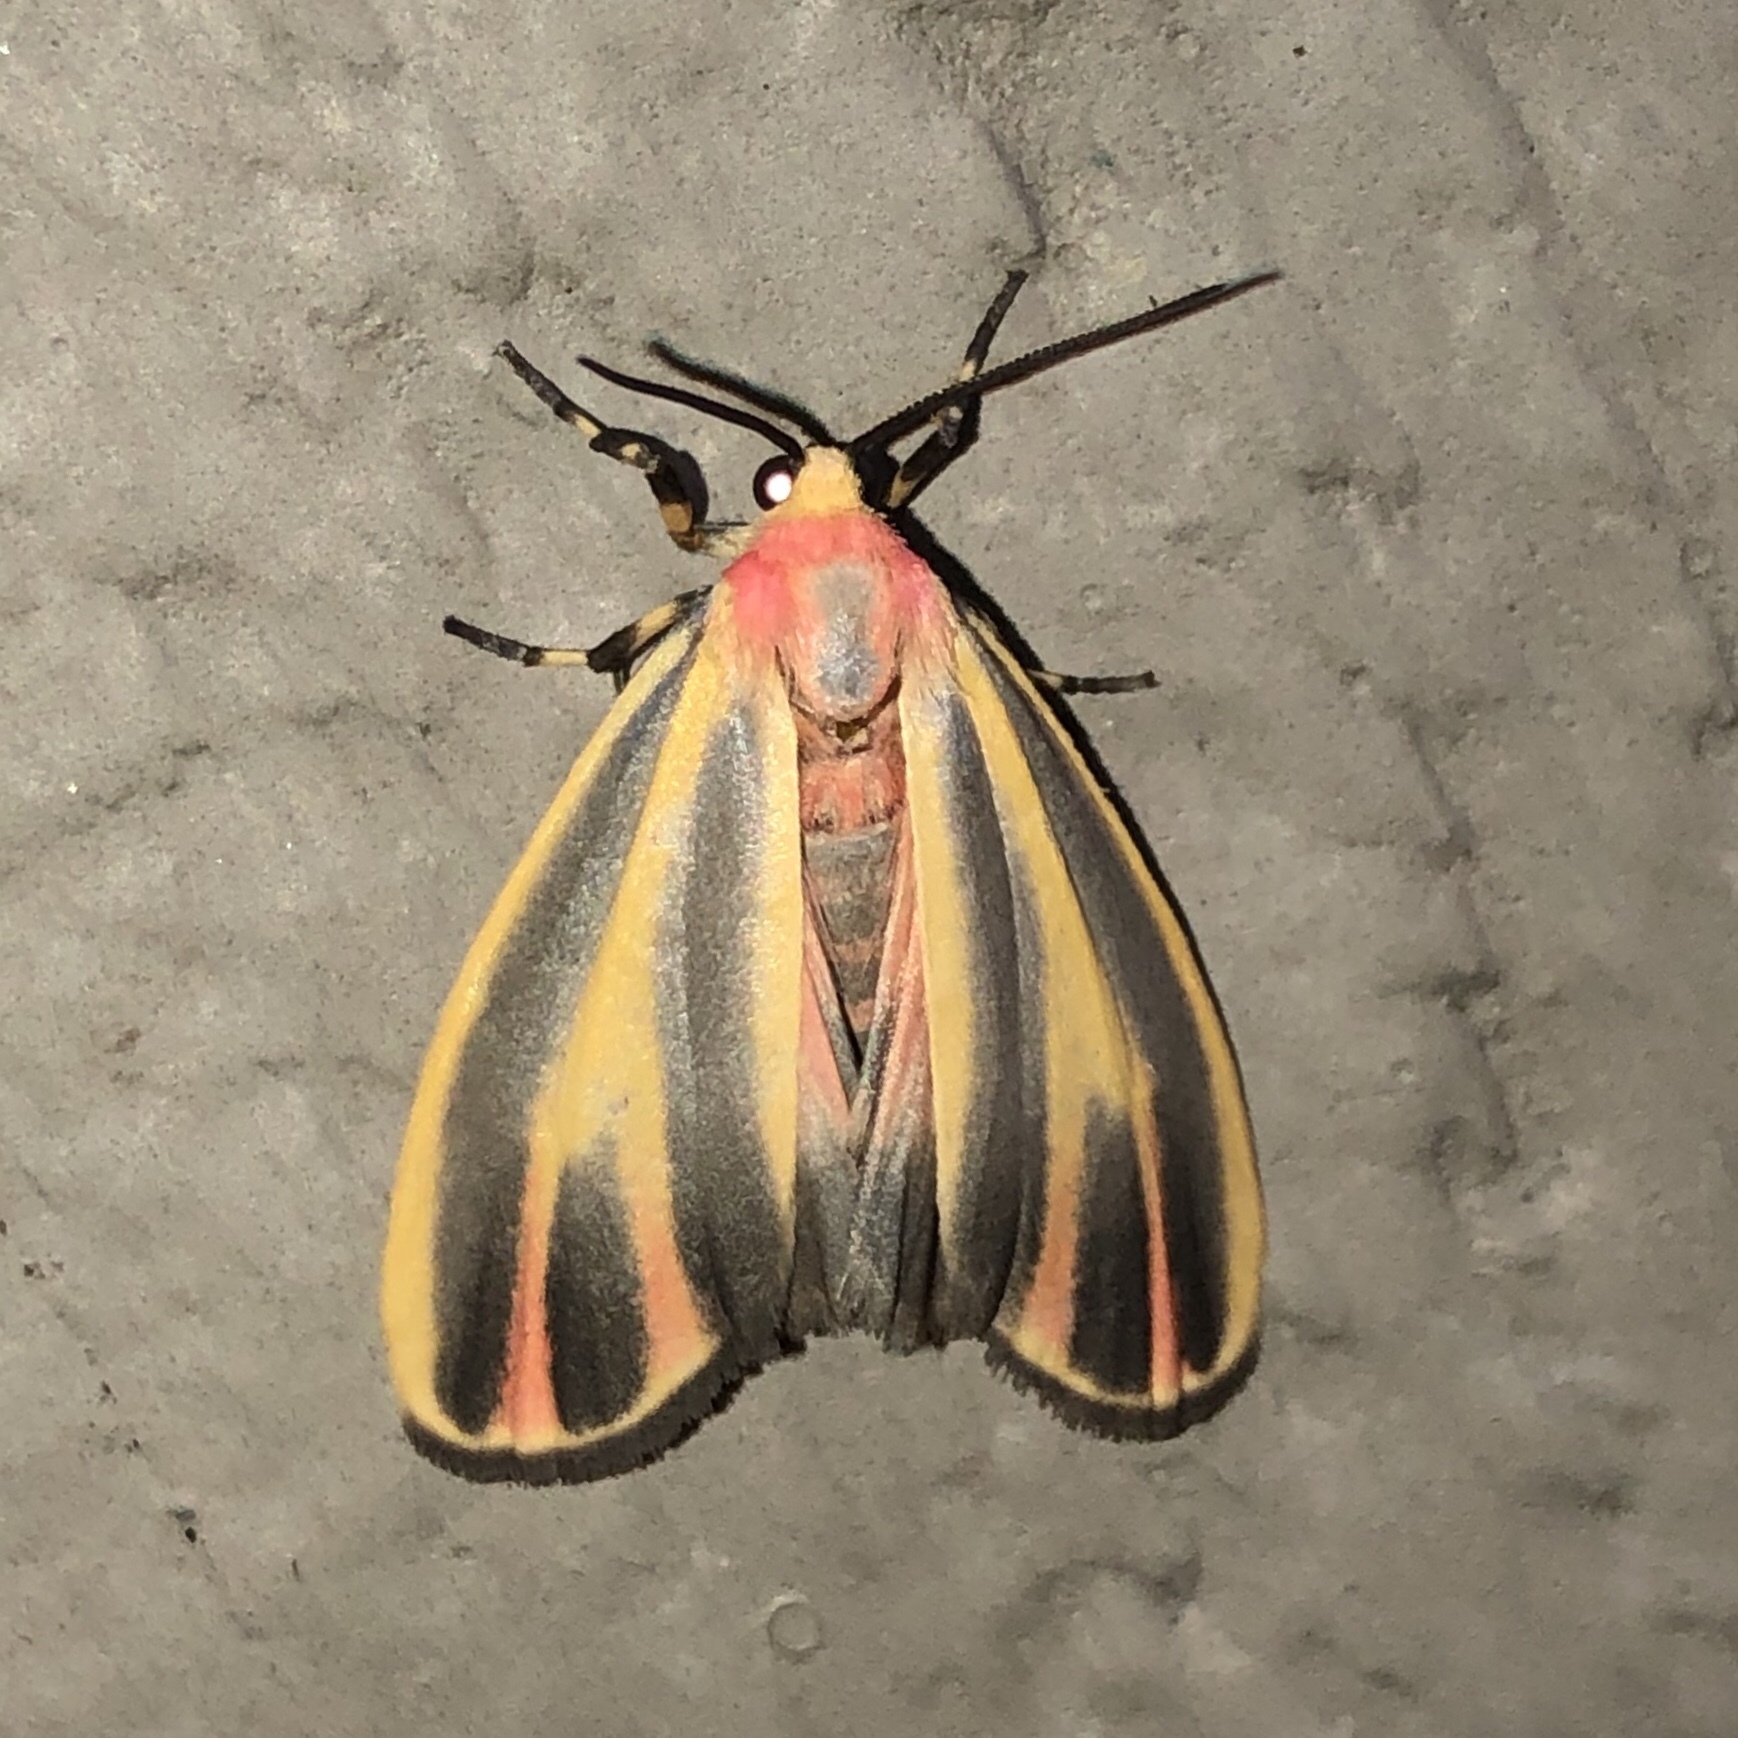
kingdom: Animalia
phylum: Arthropoda
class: Insecta
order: Lepidoptera
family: Erebidae
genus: Hypoprepia
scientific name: Hypoprepia fucosa
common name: Painted lichen moth
